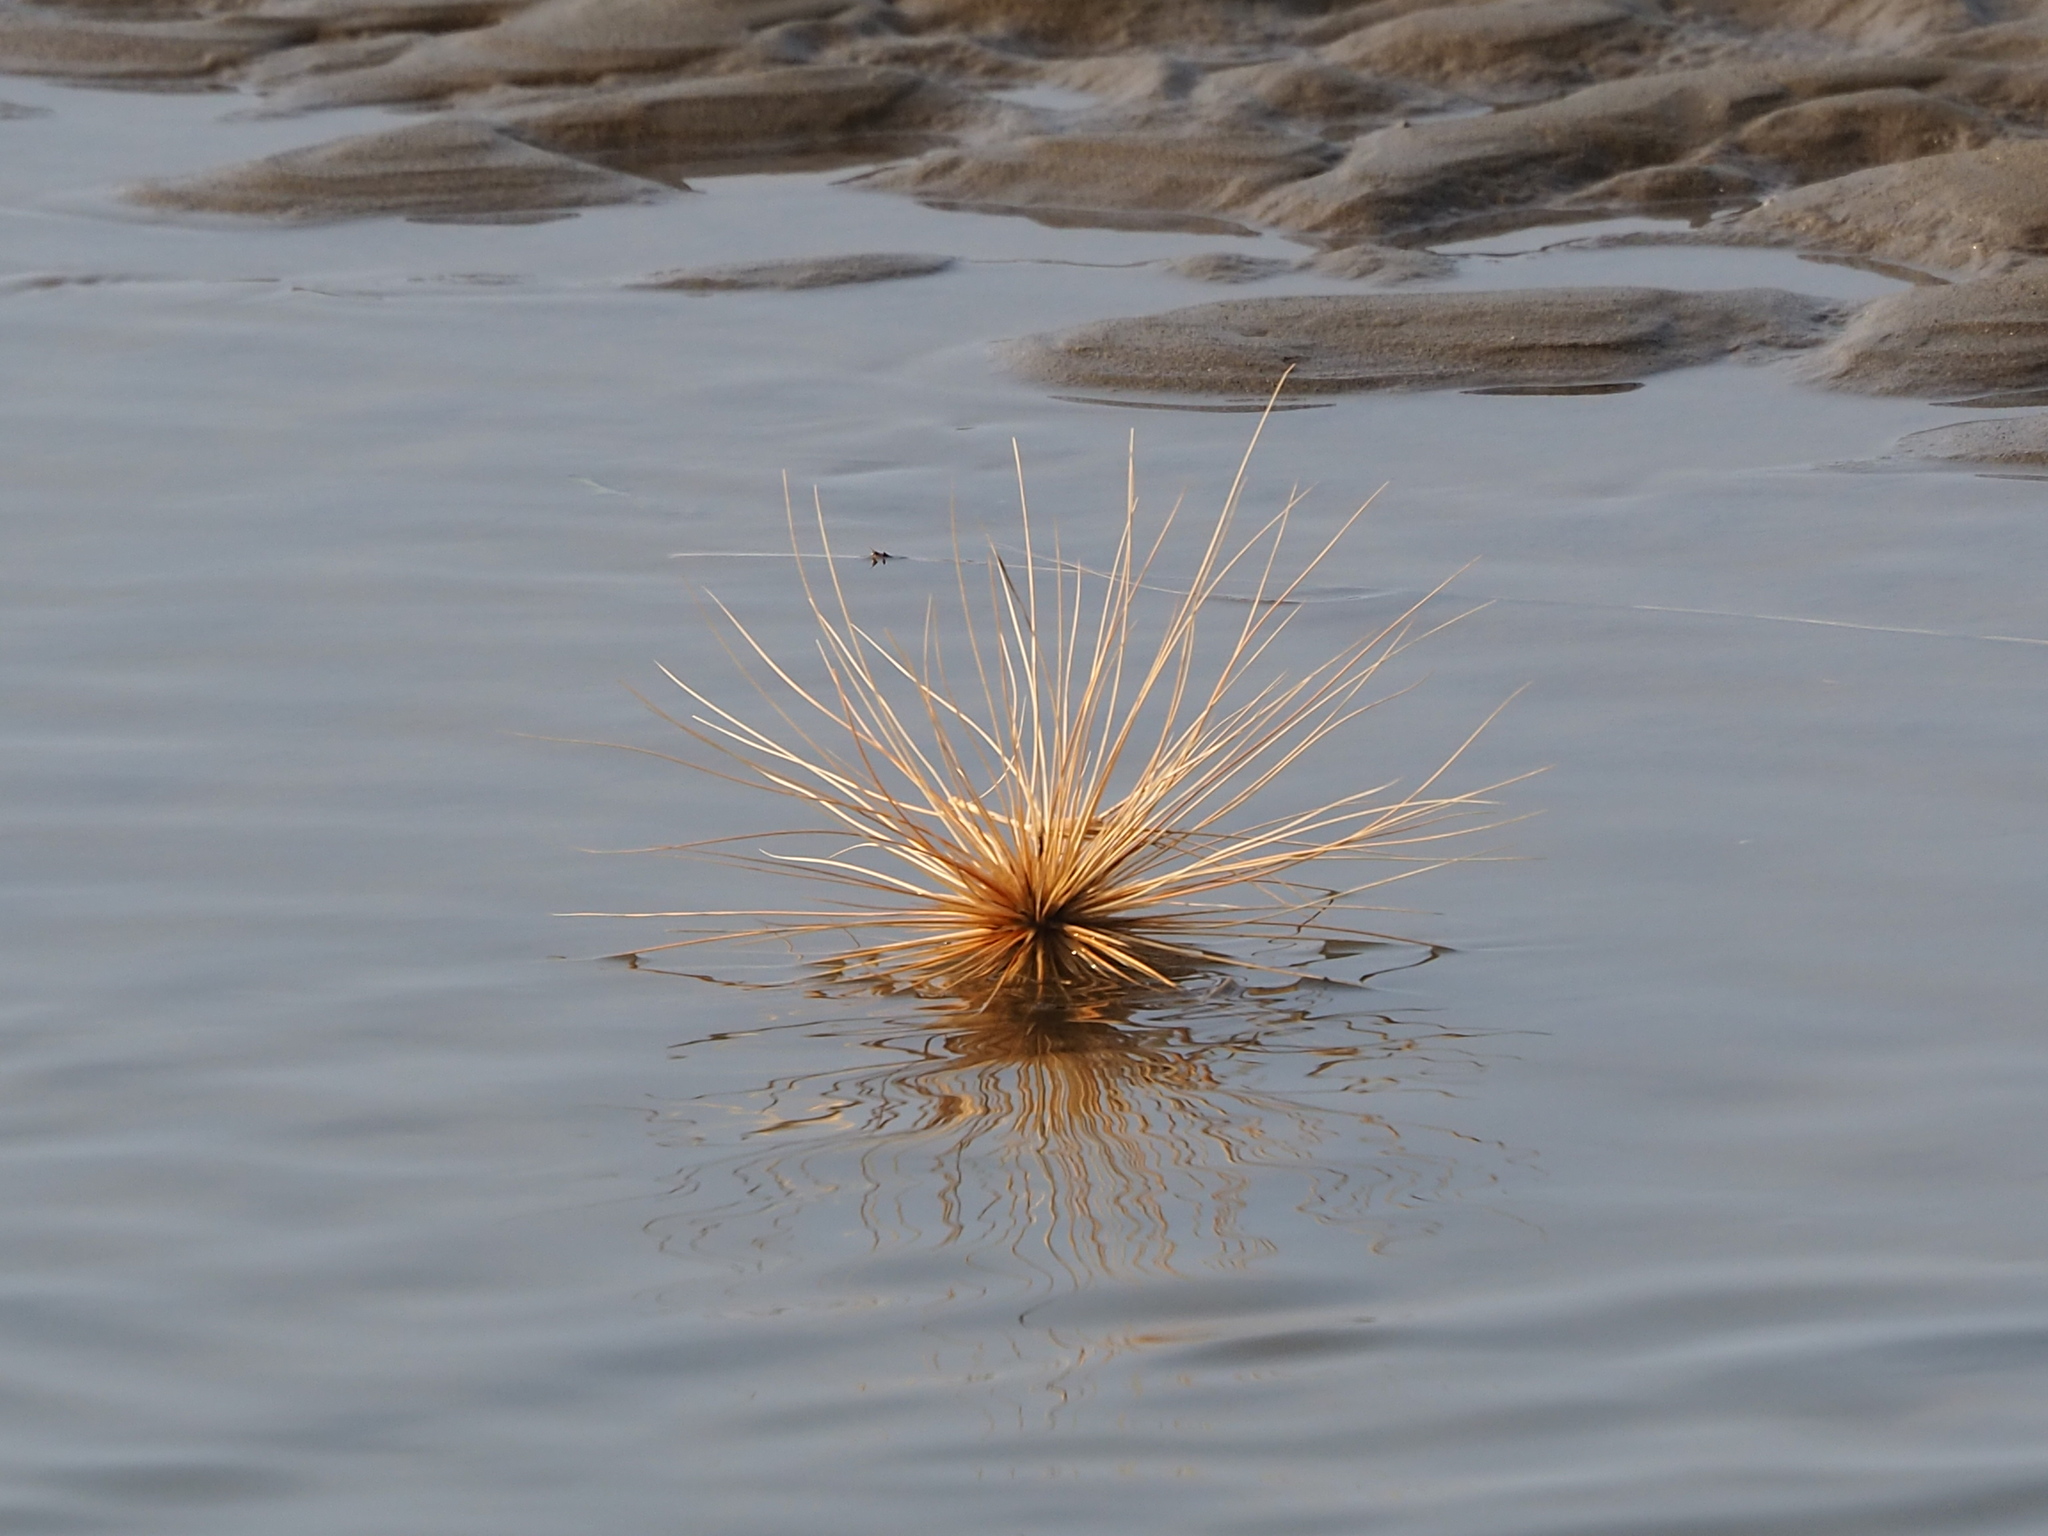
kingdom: Plantae
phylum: Tracheophyta
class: Liliopsida
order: Poales
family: Poaceae
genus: Spinifex
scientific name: Spinifex littoreus
